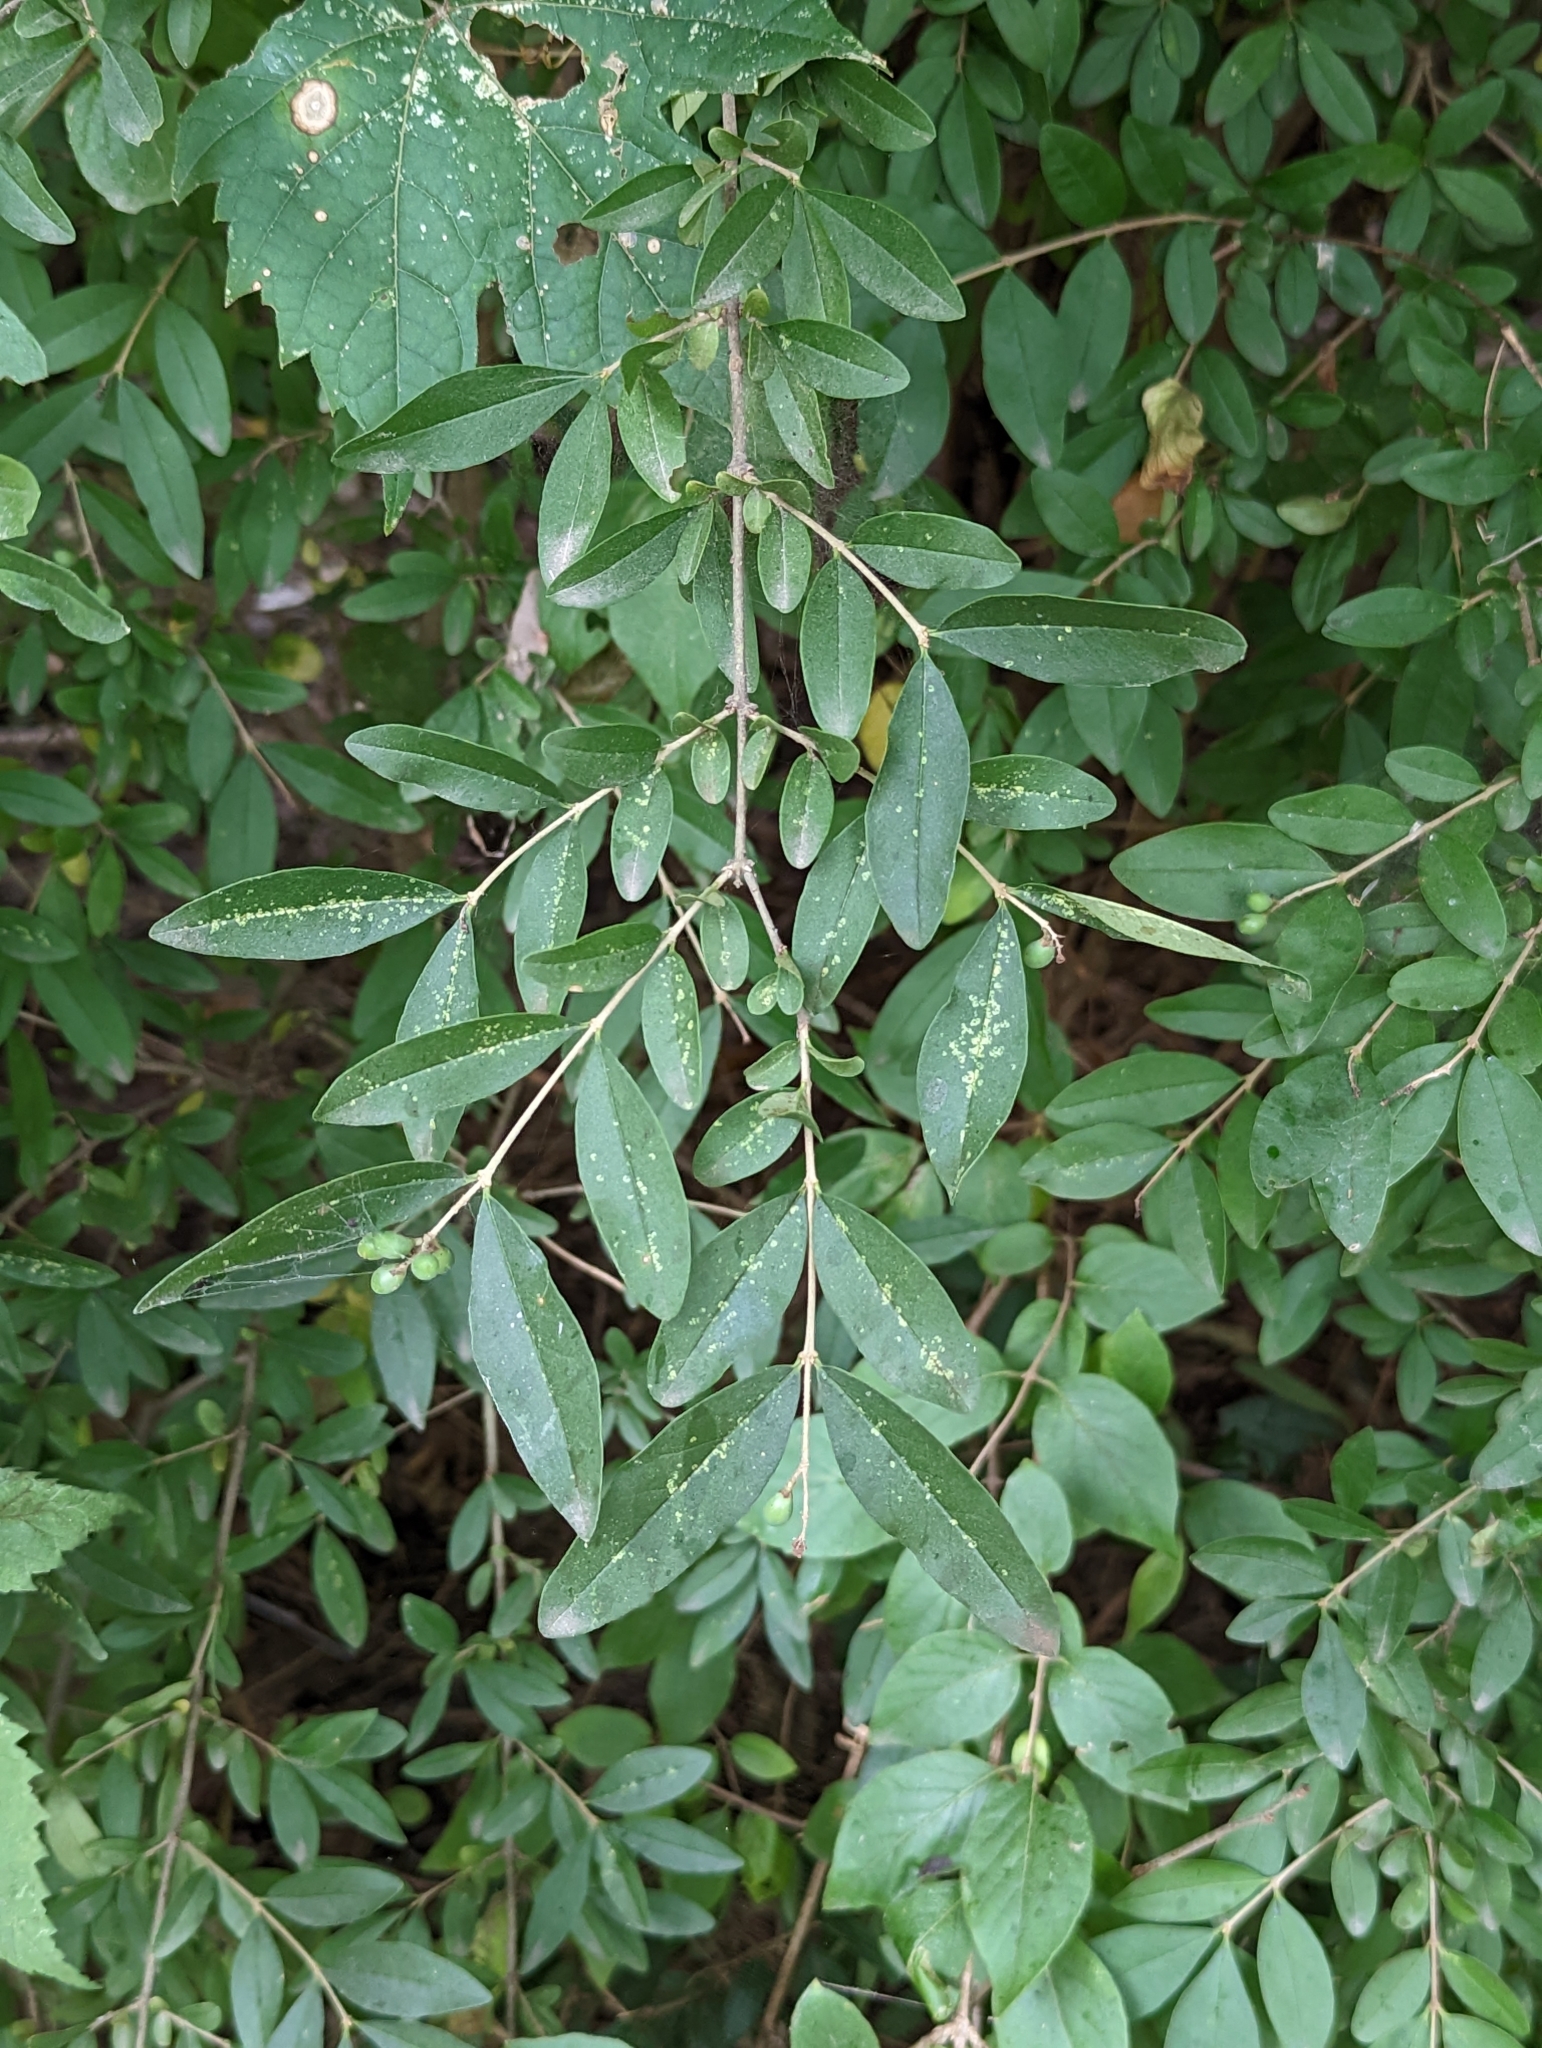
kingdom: Plantae
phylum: Tracheophyta
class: Magnoliopsida
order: Lamiales
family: Oleaceae
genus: Ligustrum
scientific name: Ligustrum obtusifolium
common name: Border privet
